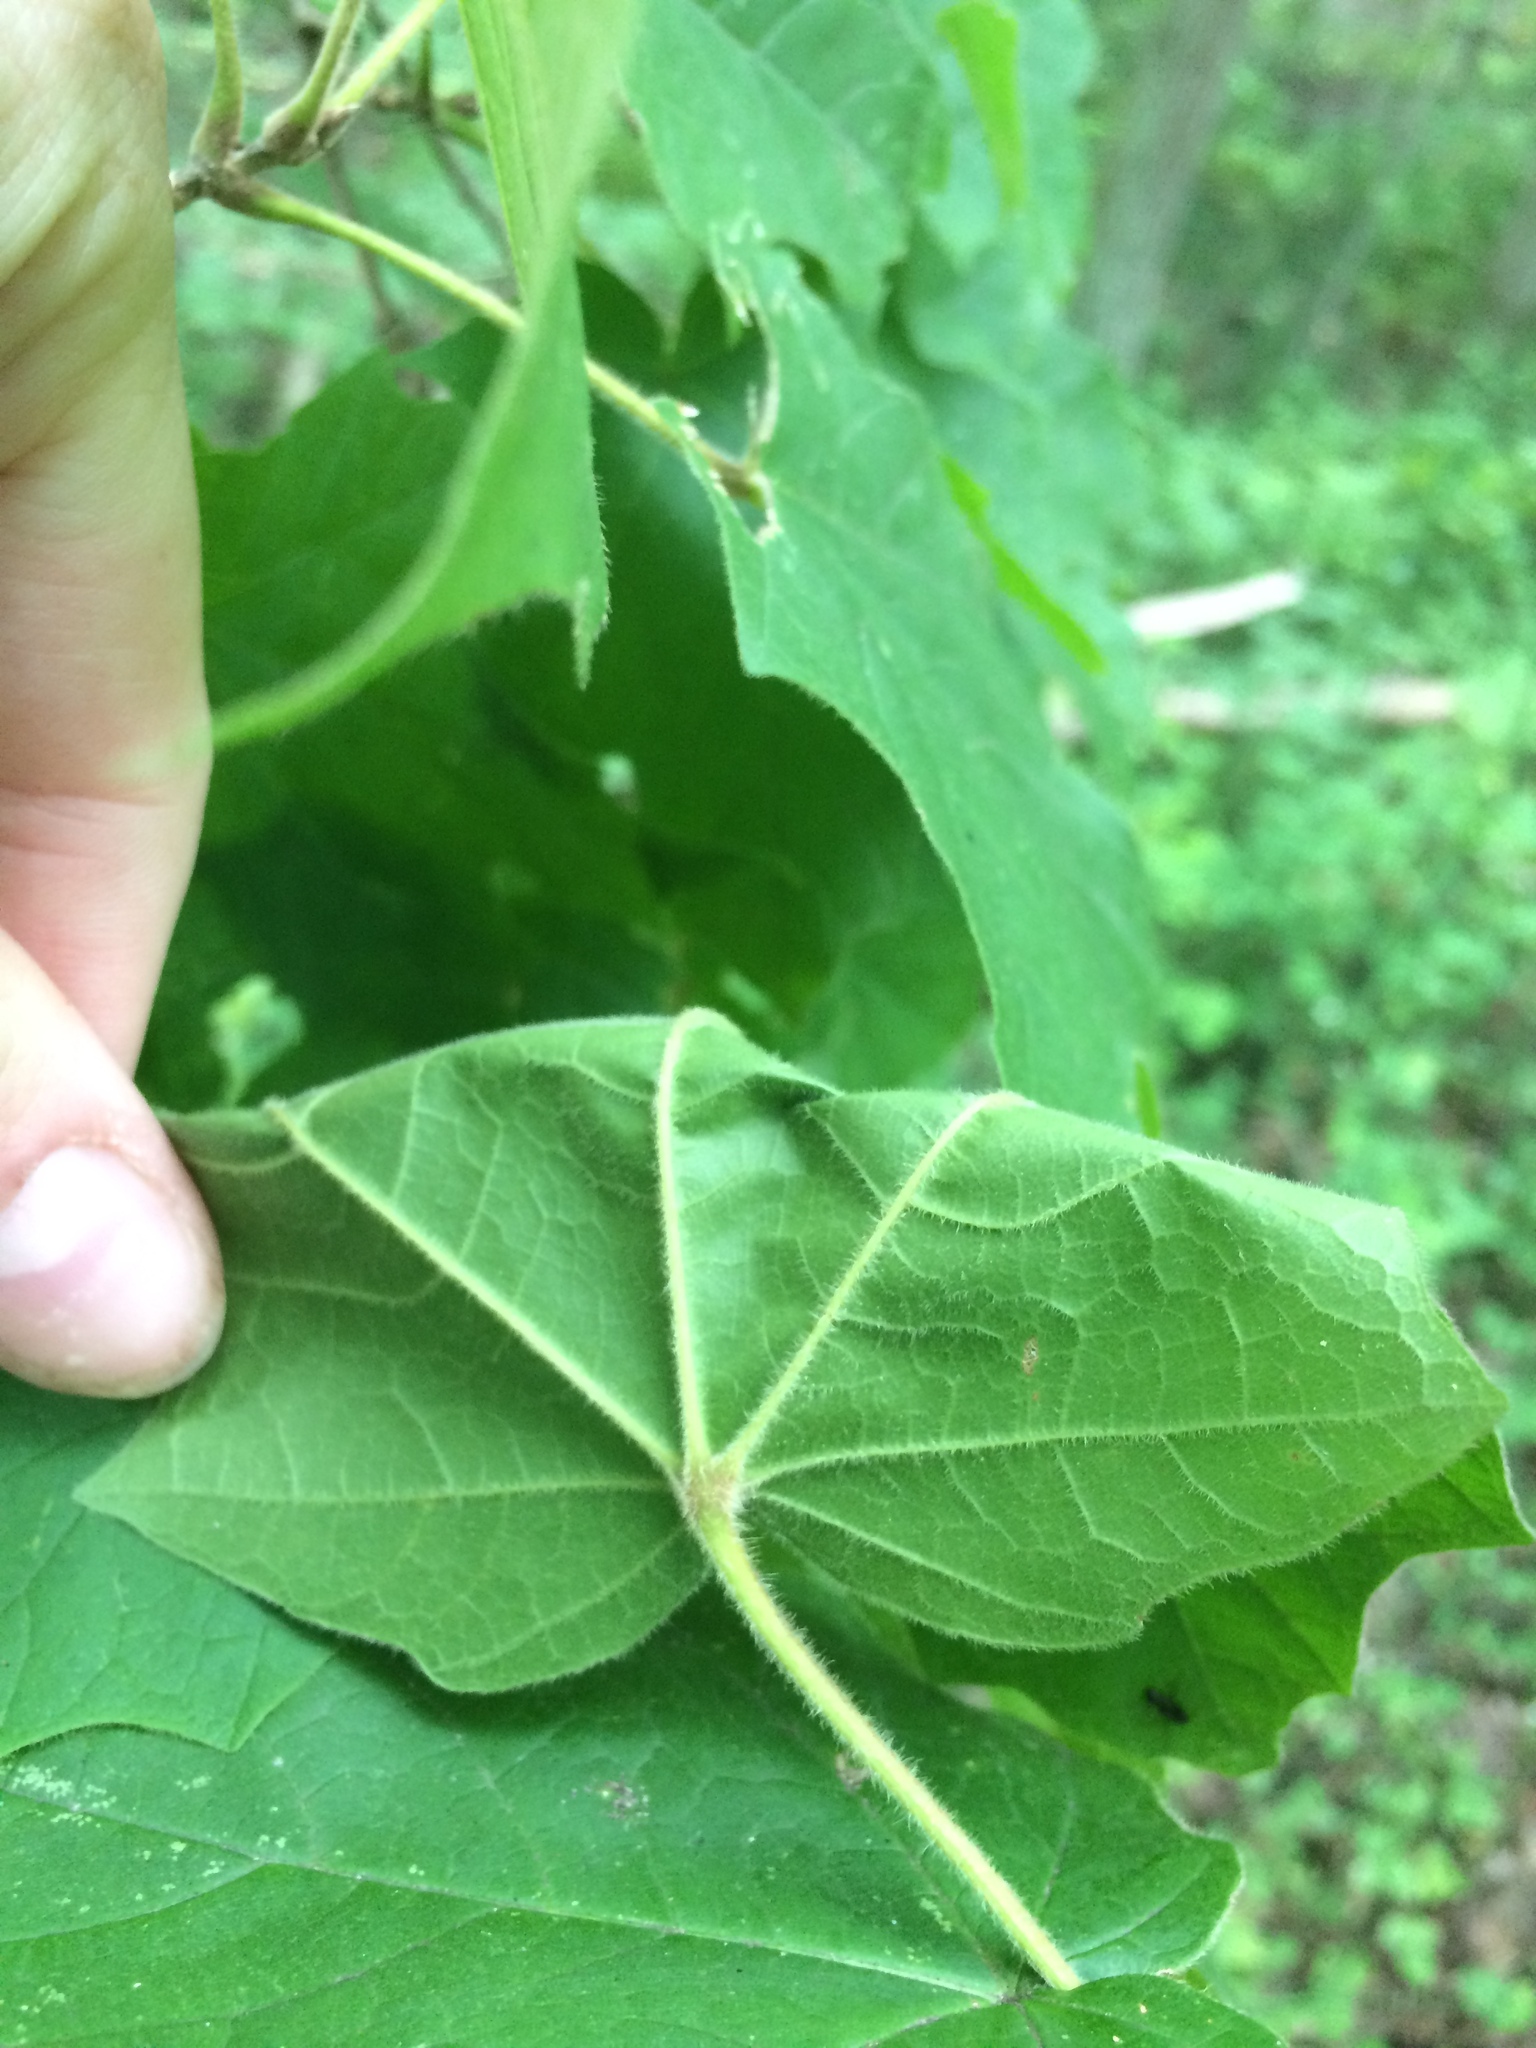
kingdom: Plantae
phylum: Tracheophyta
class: Magnoliopsida
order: Sapindales
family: Sapindaceae
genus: Acer
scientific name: Acer nigrum
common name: Black maple
